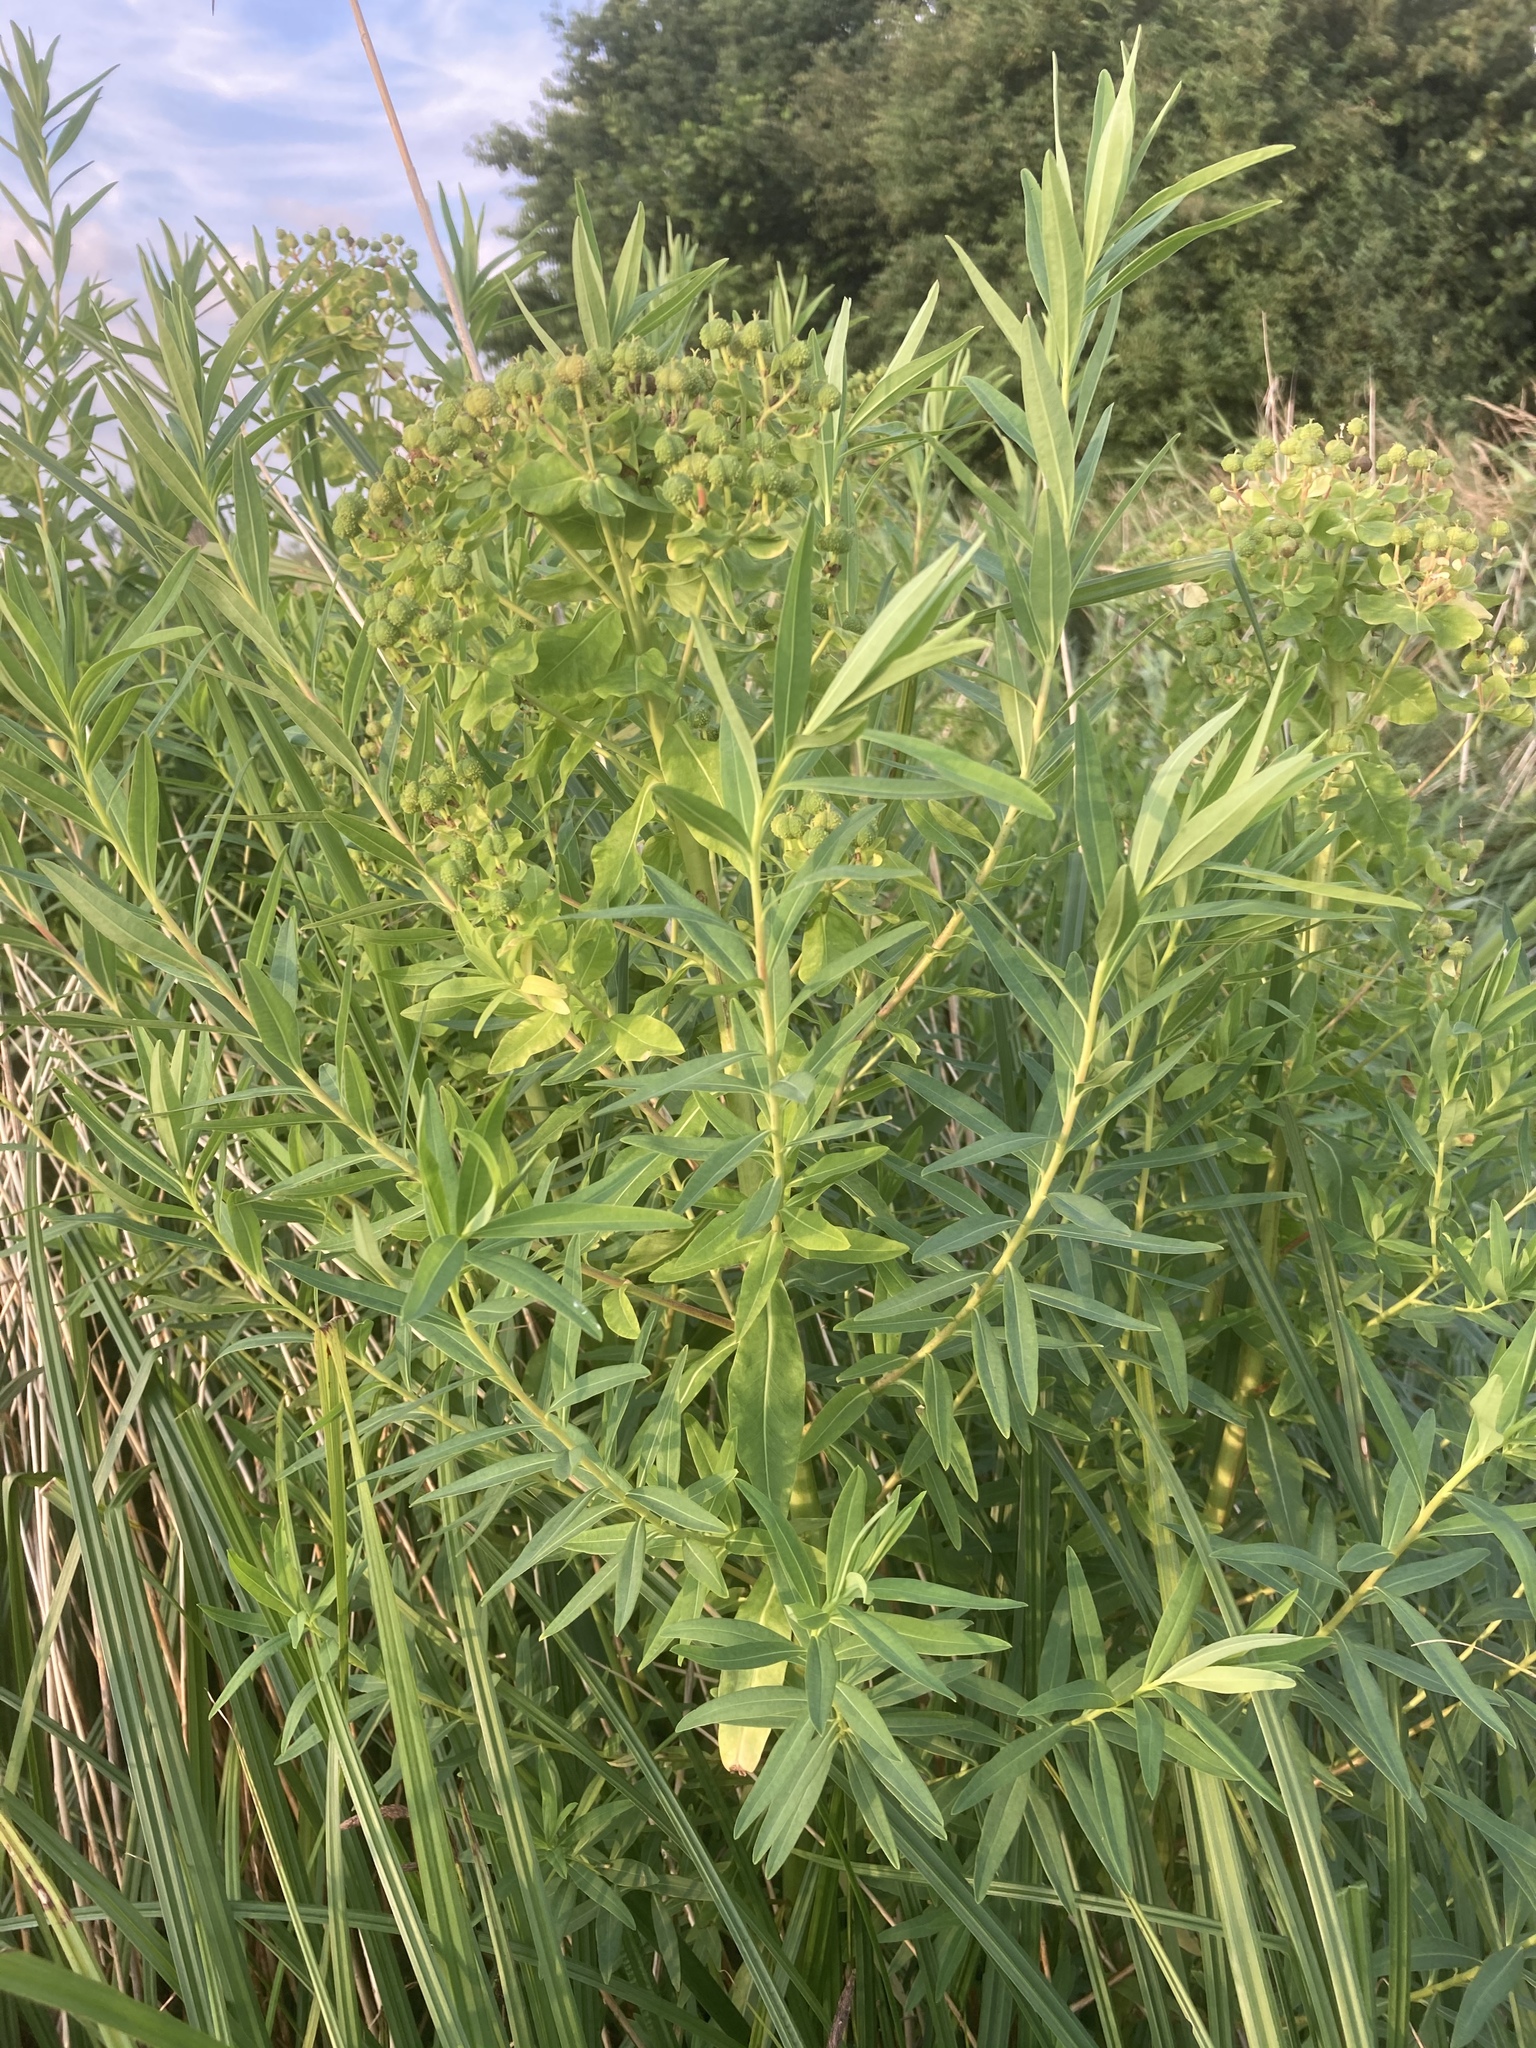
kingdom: Plantae
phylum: Tracheophyta
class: Magnoliopsida
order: Malpighiales
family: Euphorbiaceae
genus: Euphorbia
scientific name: Euphorbia palustris
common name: Marsh spurge
